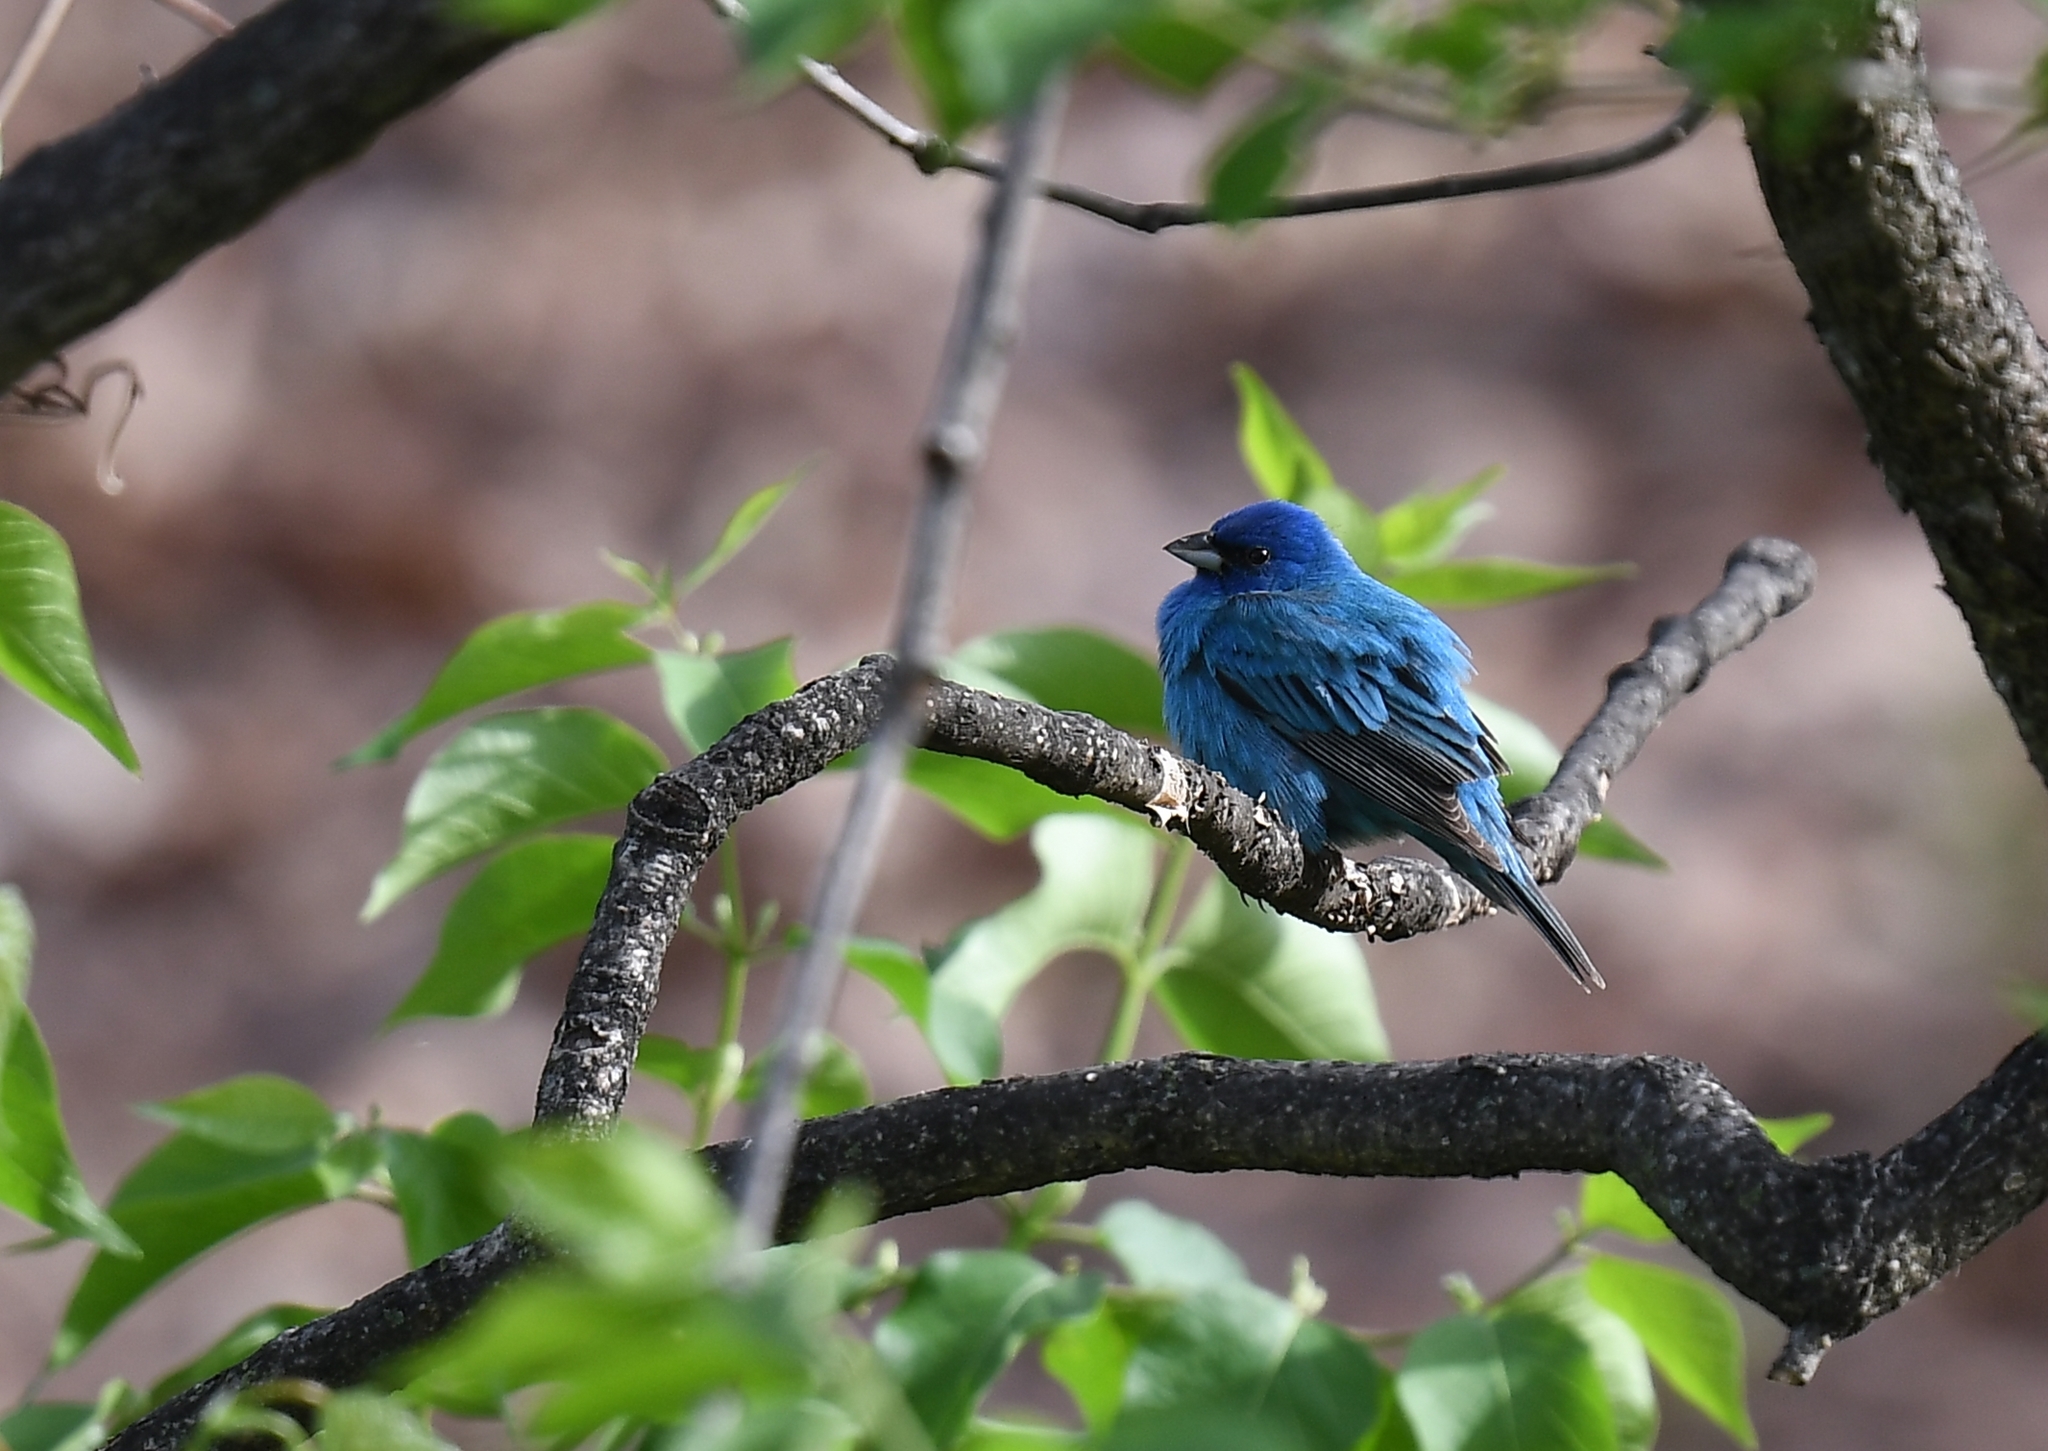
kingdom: Animalia
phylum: Chordata
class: Aves
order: Passeriformes
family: Cardinalidae
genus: Passerina
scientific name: Passerina cyanea
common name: Indigo bunting
